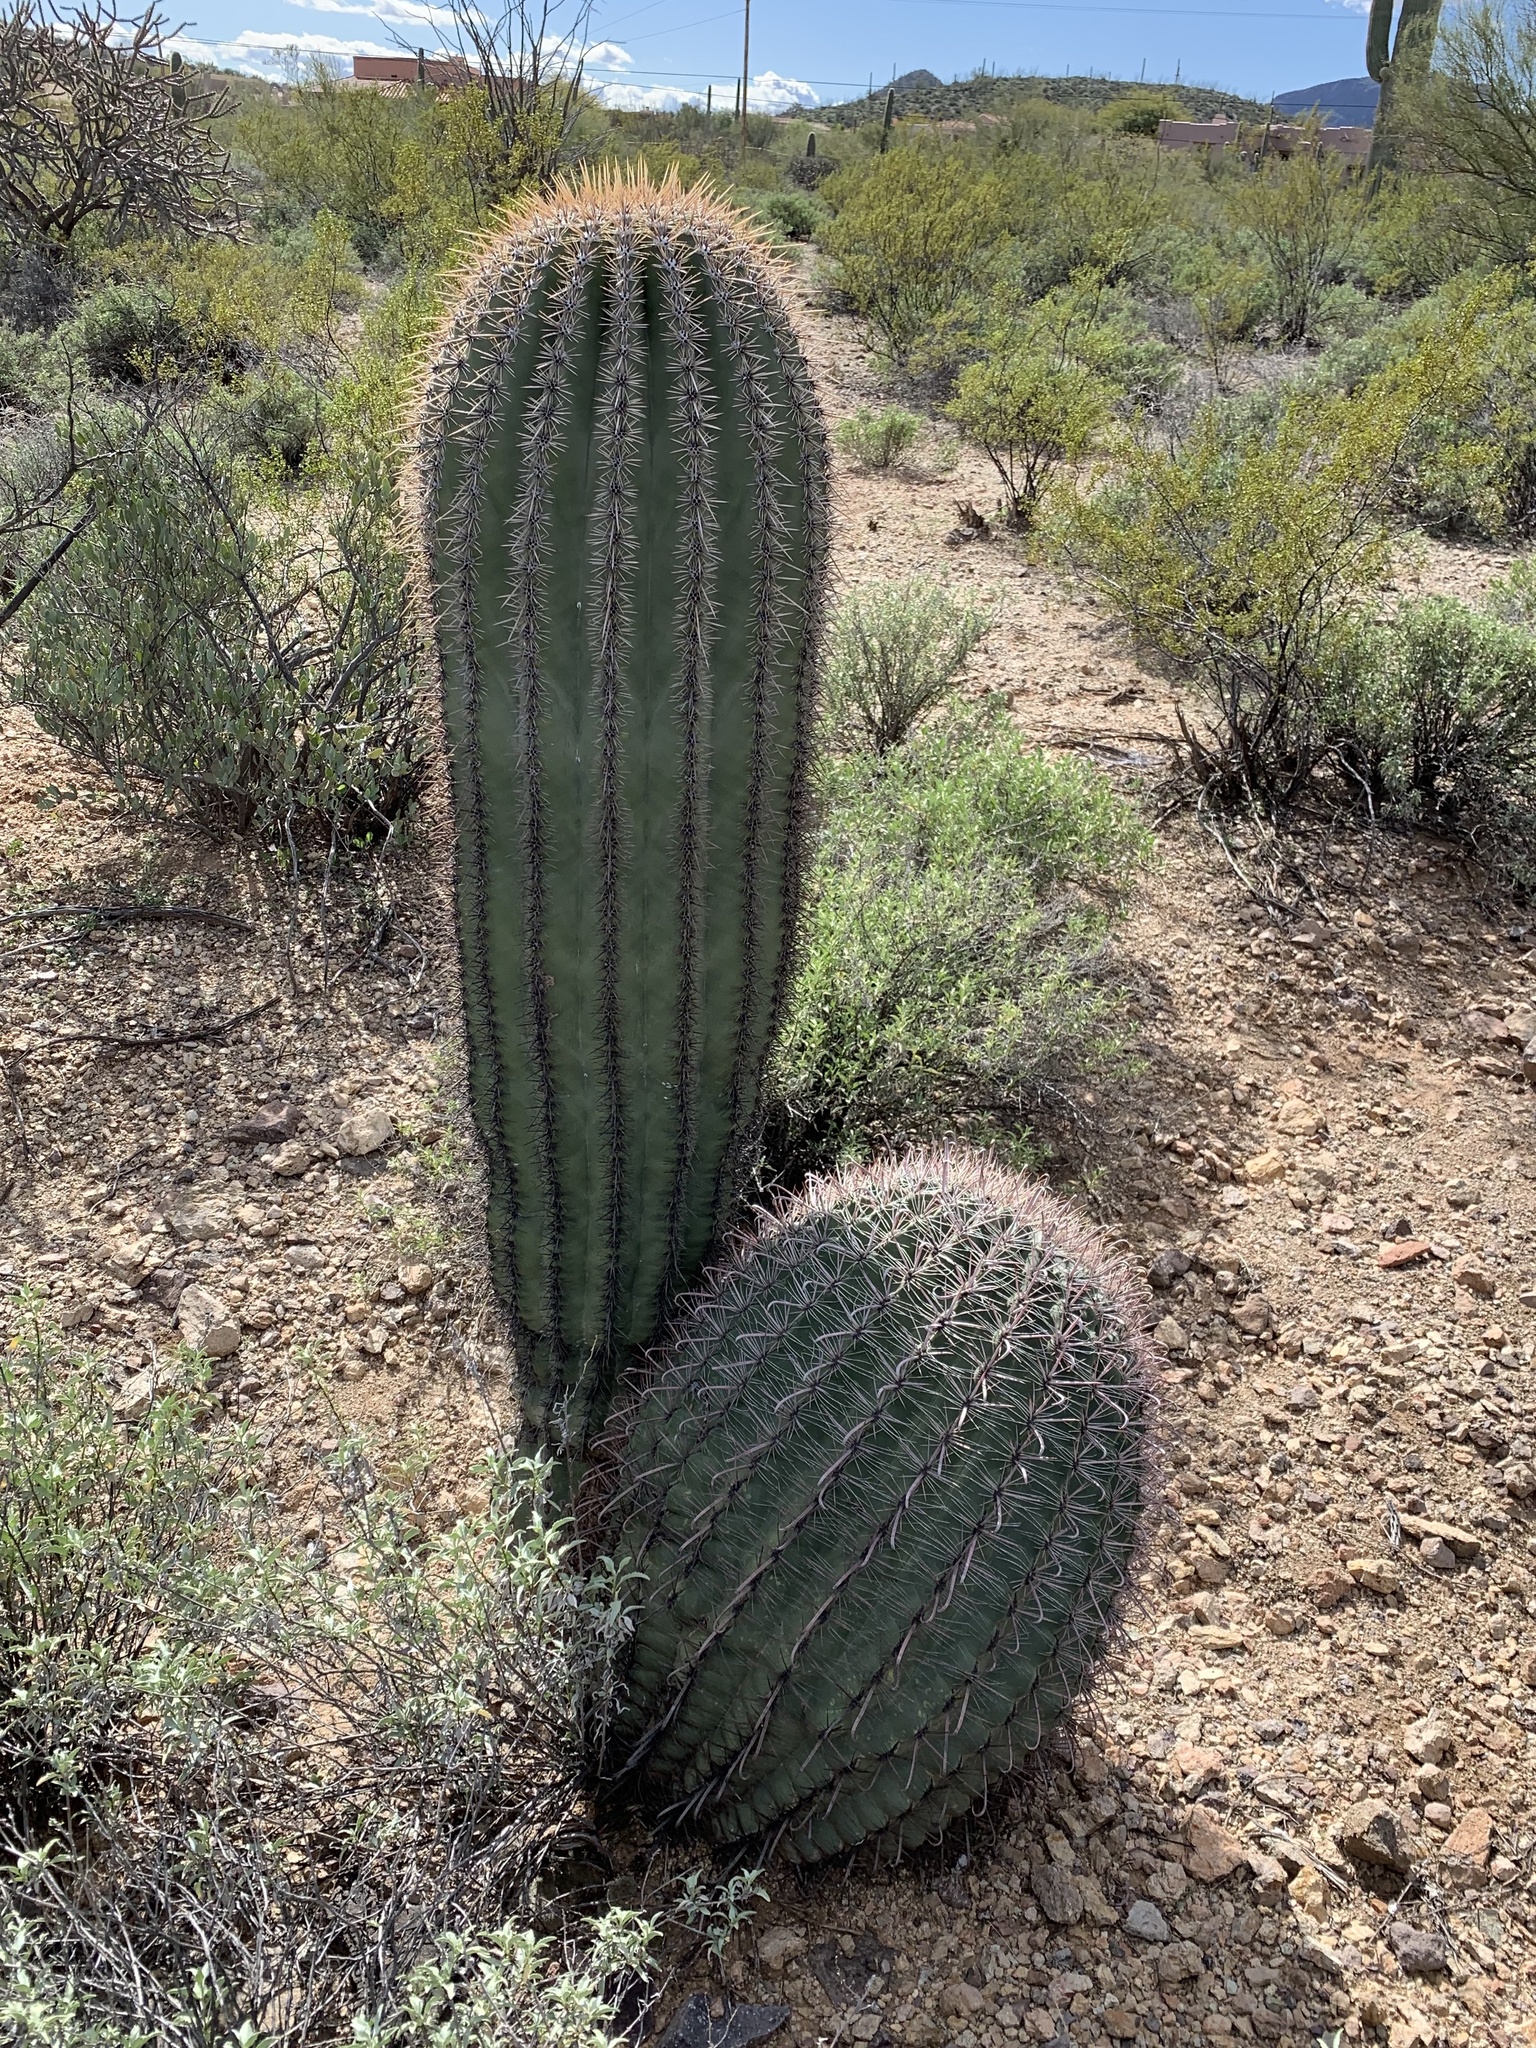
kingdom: Plantae
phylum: Tracheophyta
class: Magnoliopsida
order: Caryophyllales
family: Cactaceae
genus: Carnegiea
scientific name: Carnegiea gigantea
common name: Saguaro
